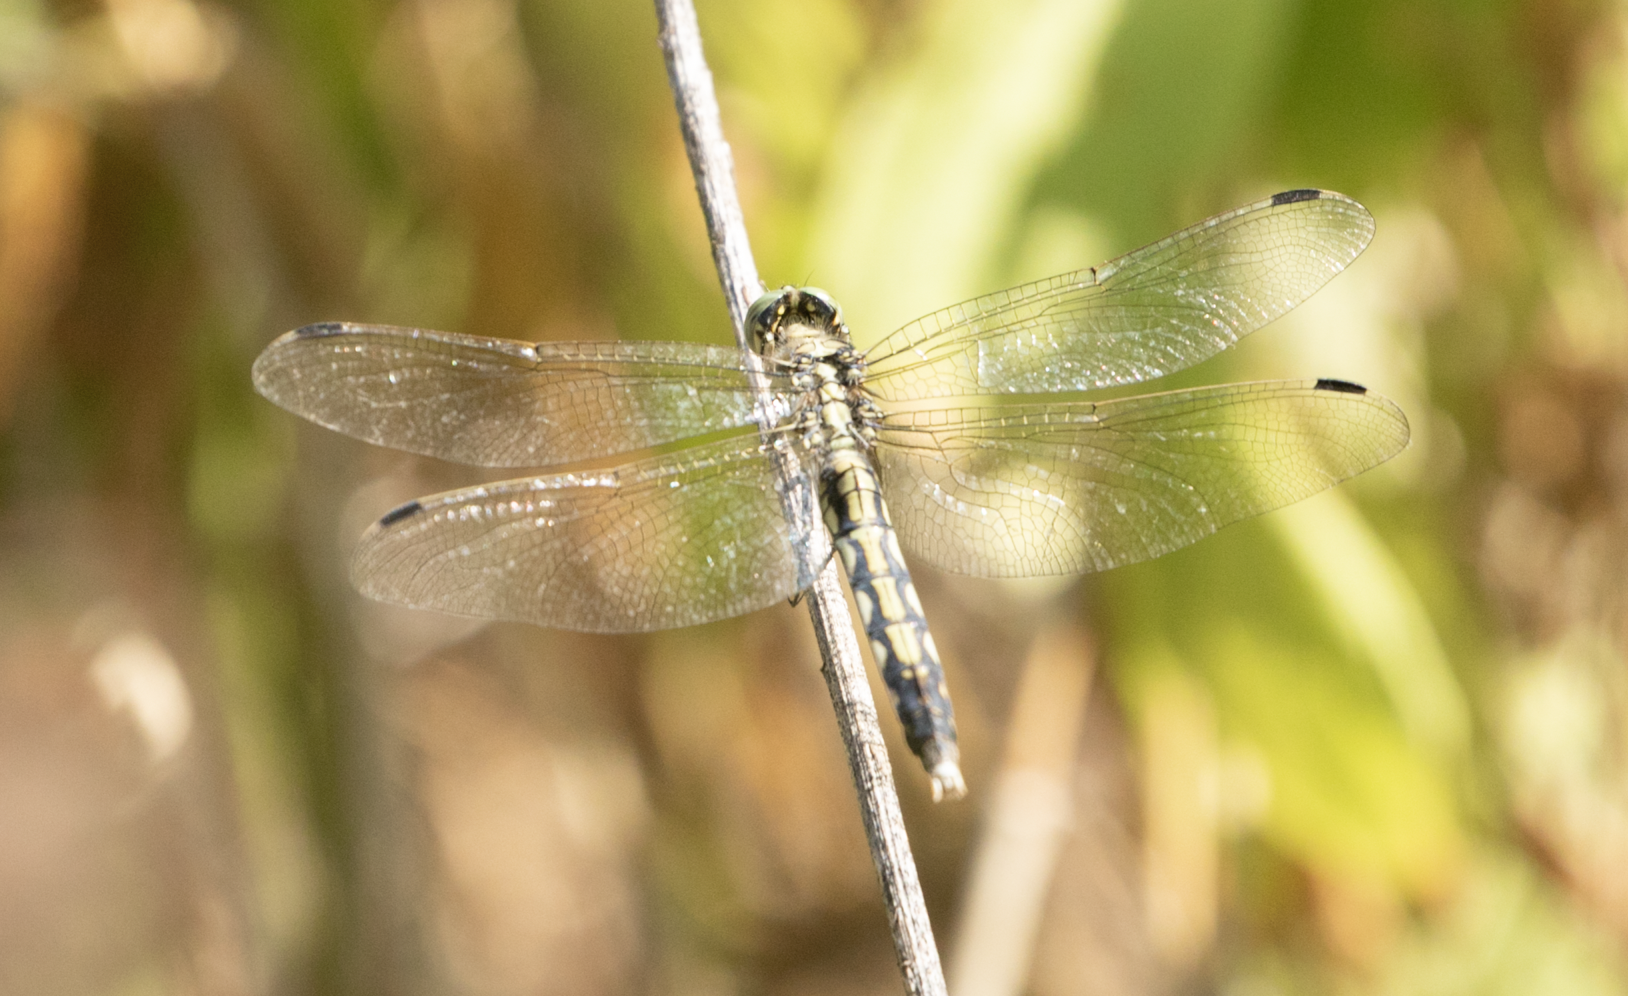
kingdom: Animalia
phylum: Arthropoda
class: Insecta
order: Odonata
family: Libellulidae
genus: Orthetrum
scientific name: Orthetrum albistylum
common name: White-tailed skimmer
